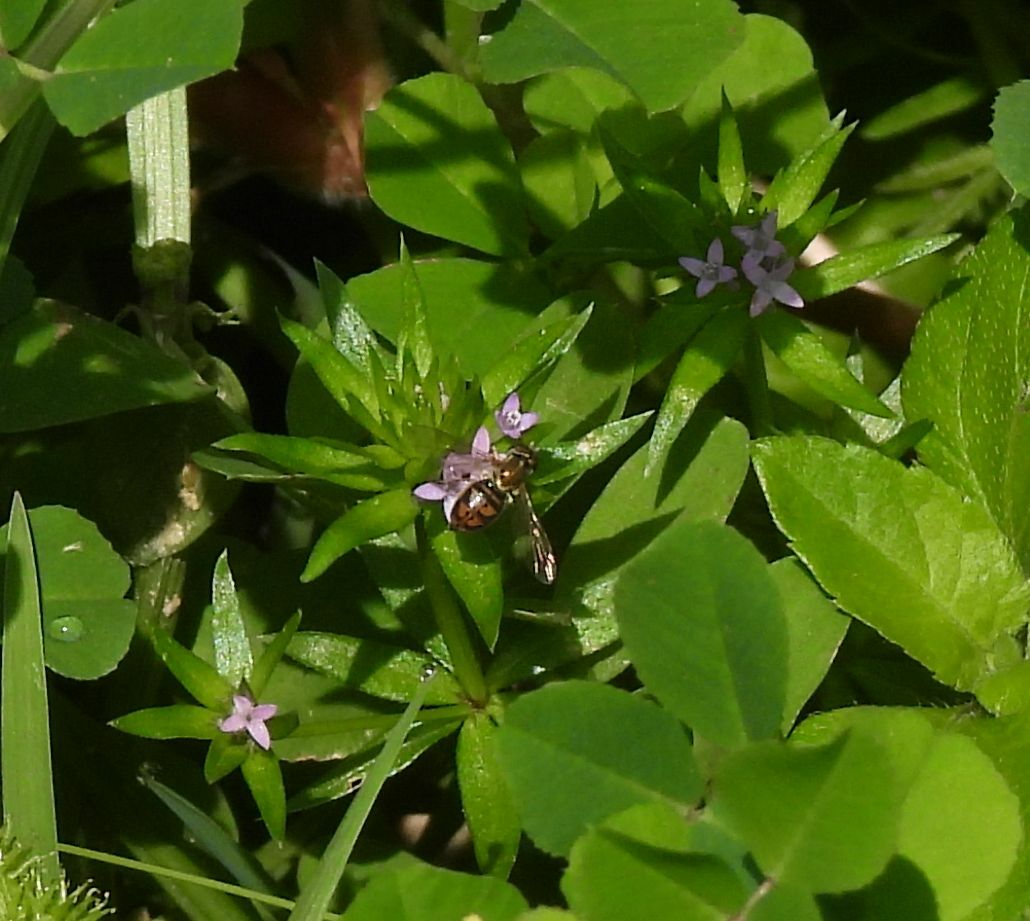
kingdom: Plantae
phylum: Tracheophyta
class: Magnoliopsida
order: Gentianales
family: Rubiaceae
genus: Sherardia
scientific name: Sherardia arvensis
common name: Field madder
